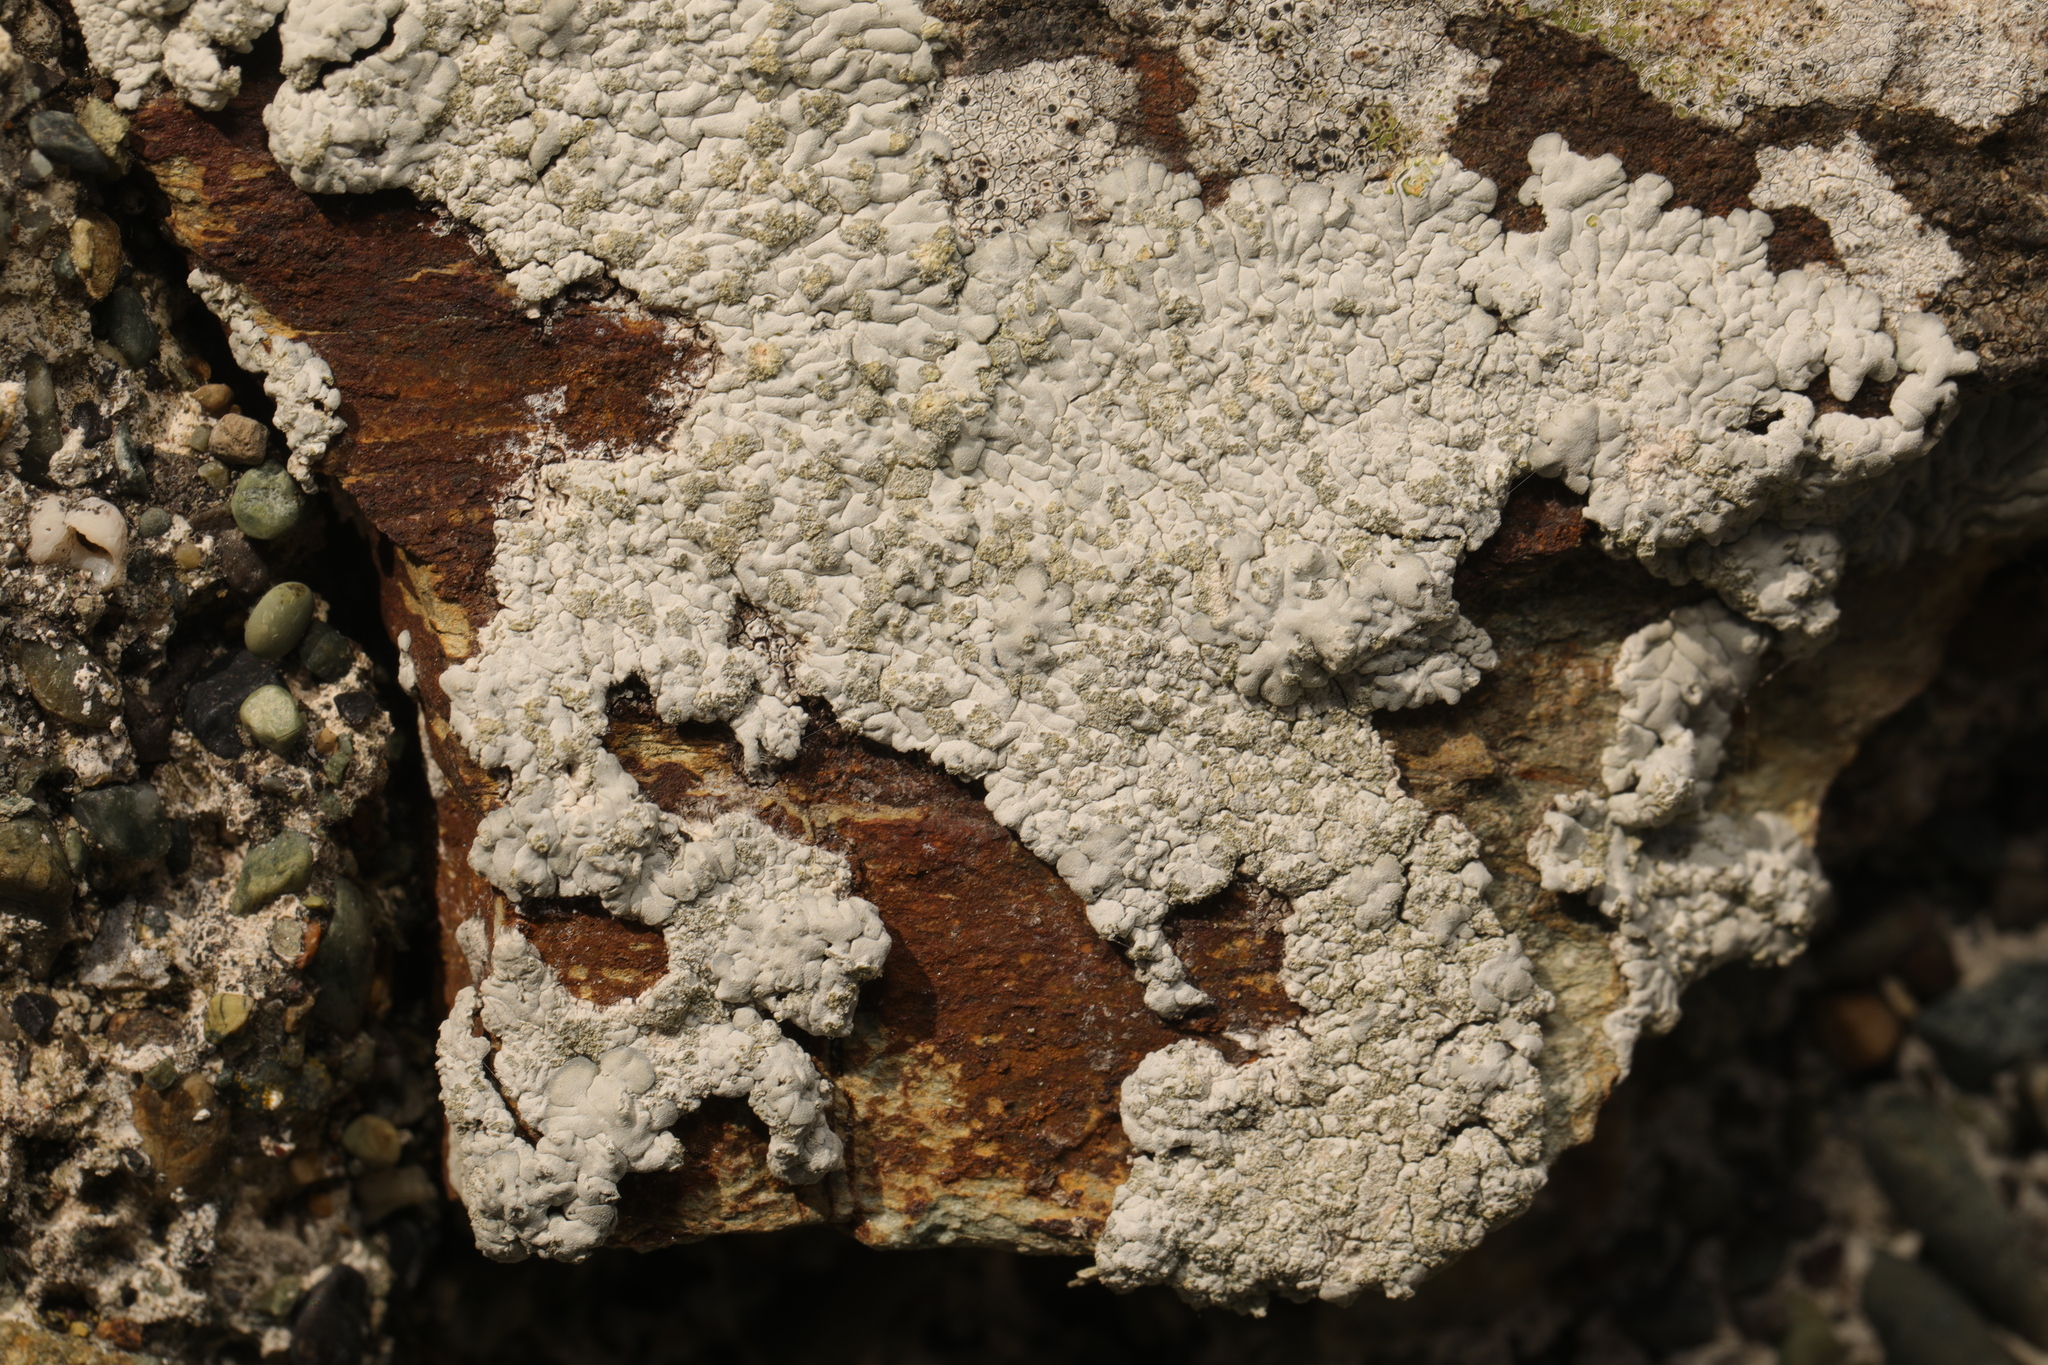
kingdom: Fungi
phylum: Ascomycota
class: Lecanoromycetes
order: Caliciales
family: Caliciaceae
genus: Diploicia
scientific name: Diploicia canescens
